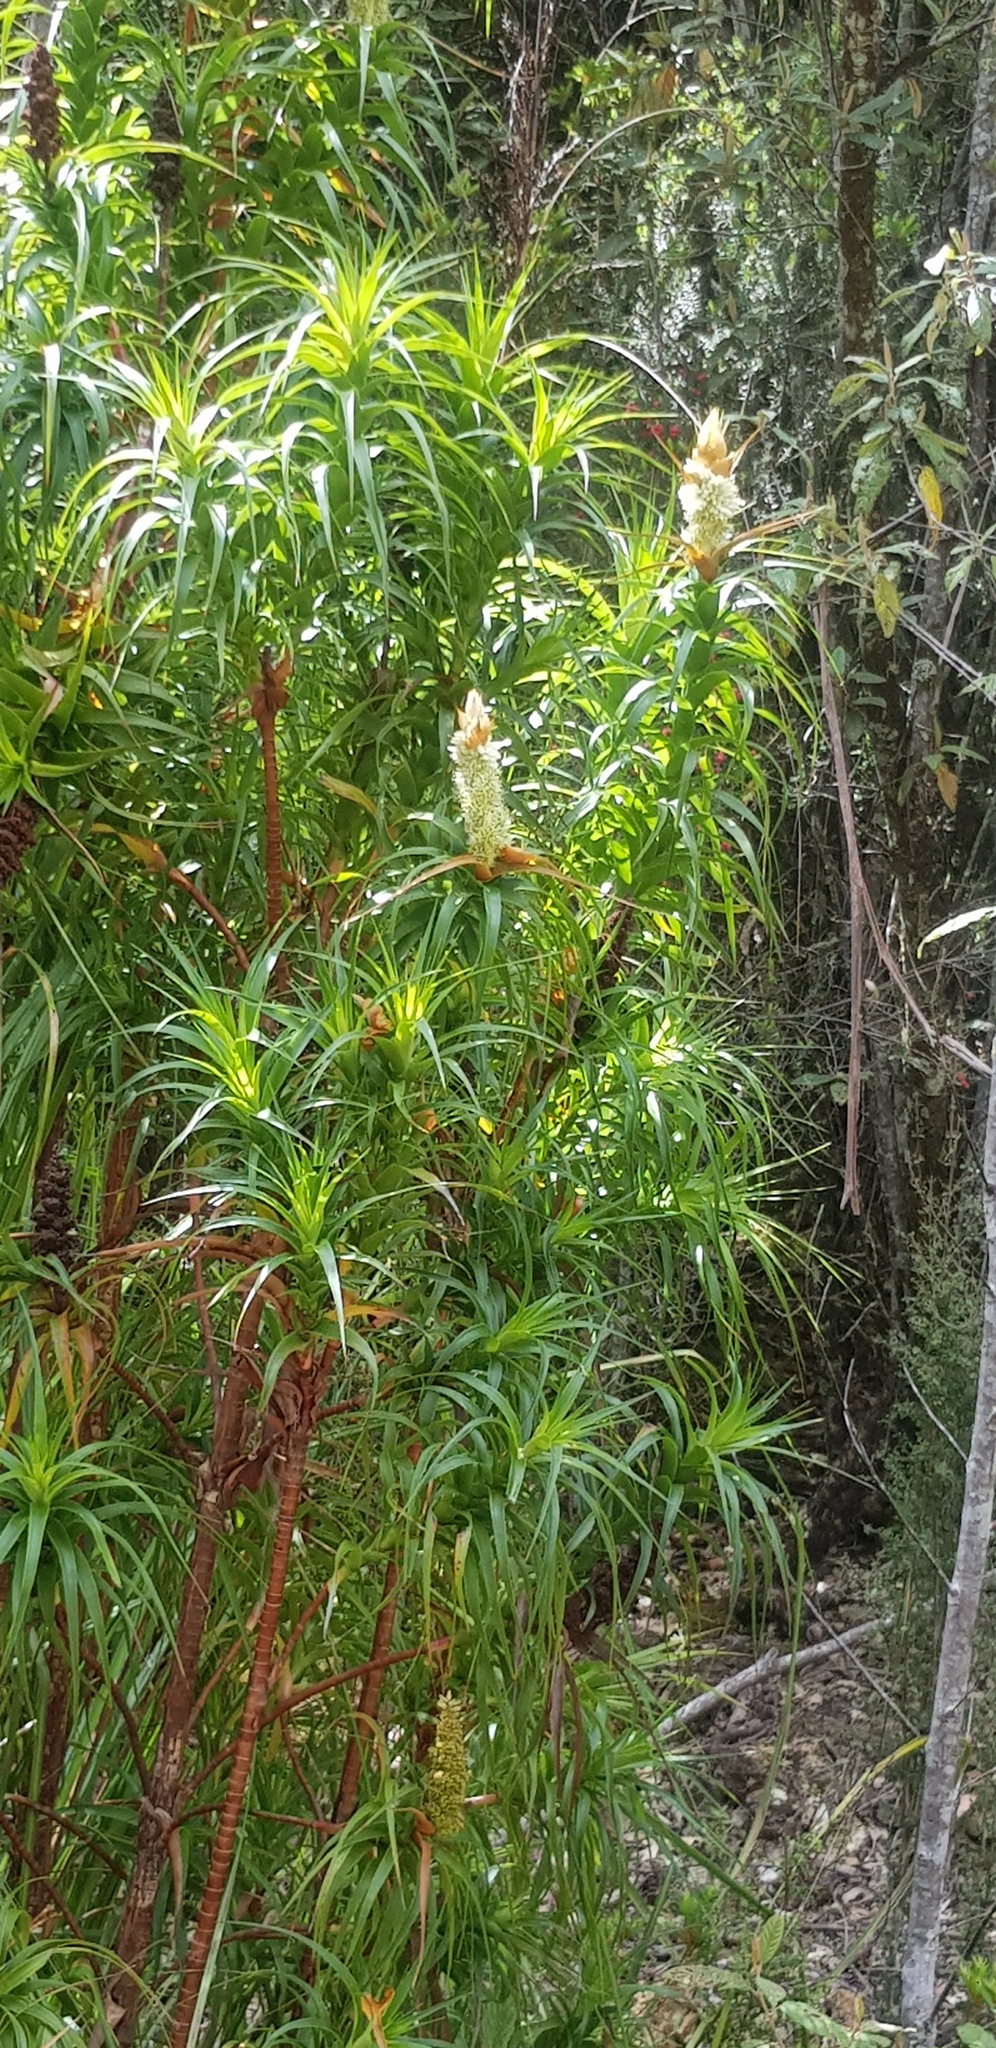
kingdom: Plantae
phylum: Tracheophyta
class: Magnoliopsida
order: Ericales
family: Ericaceae
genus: Dracophyllum
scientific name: Dracophyllum desgrazii
